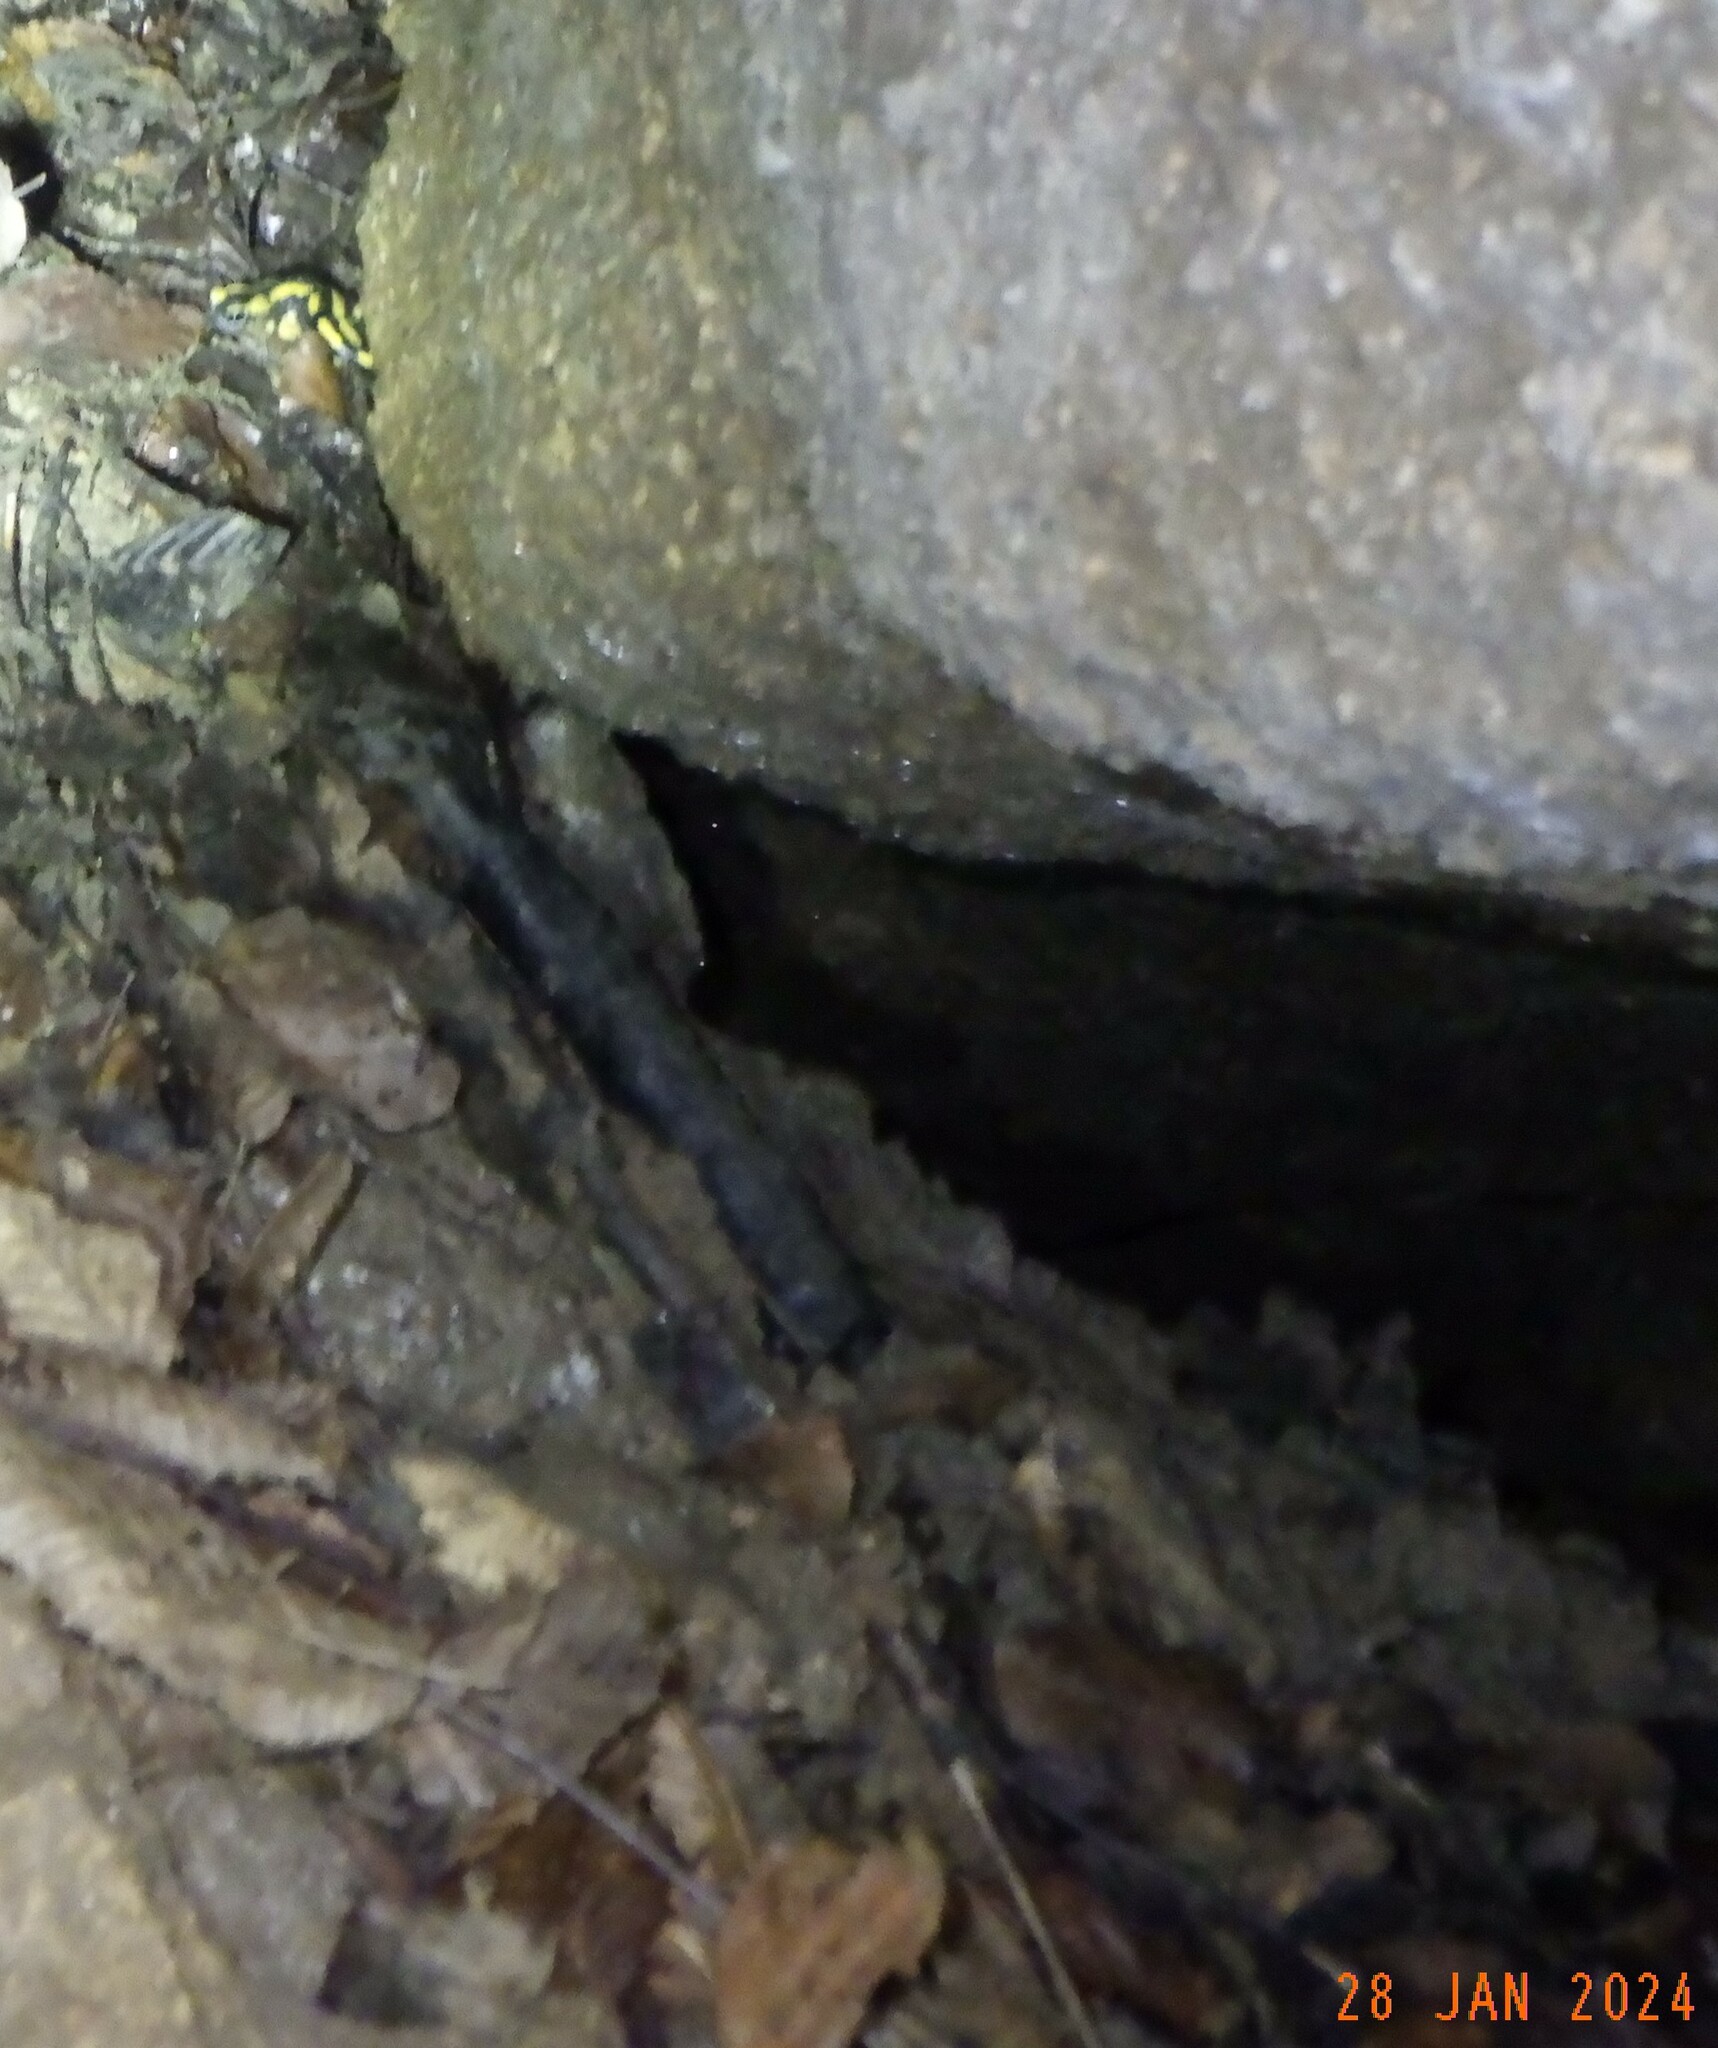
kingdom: Animalia
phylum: Chordata
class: Amphibia
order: Caudata
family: Salamandridae
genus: Salamandra
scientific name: Salamandra salamandra
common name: Fire salamander
